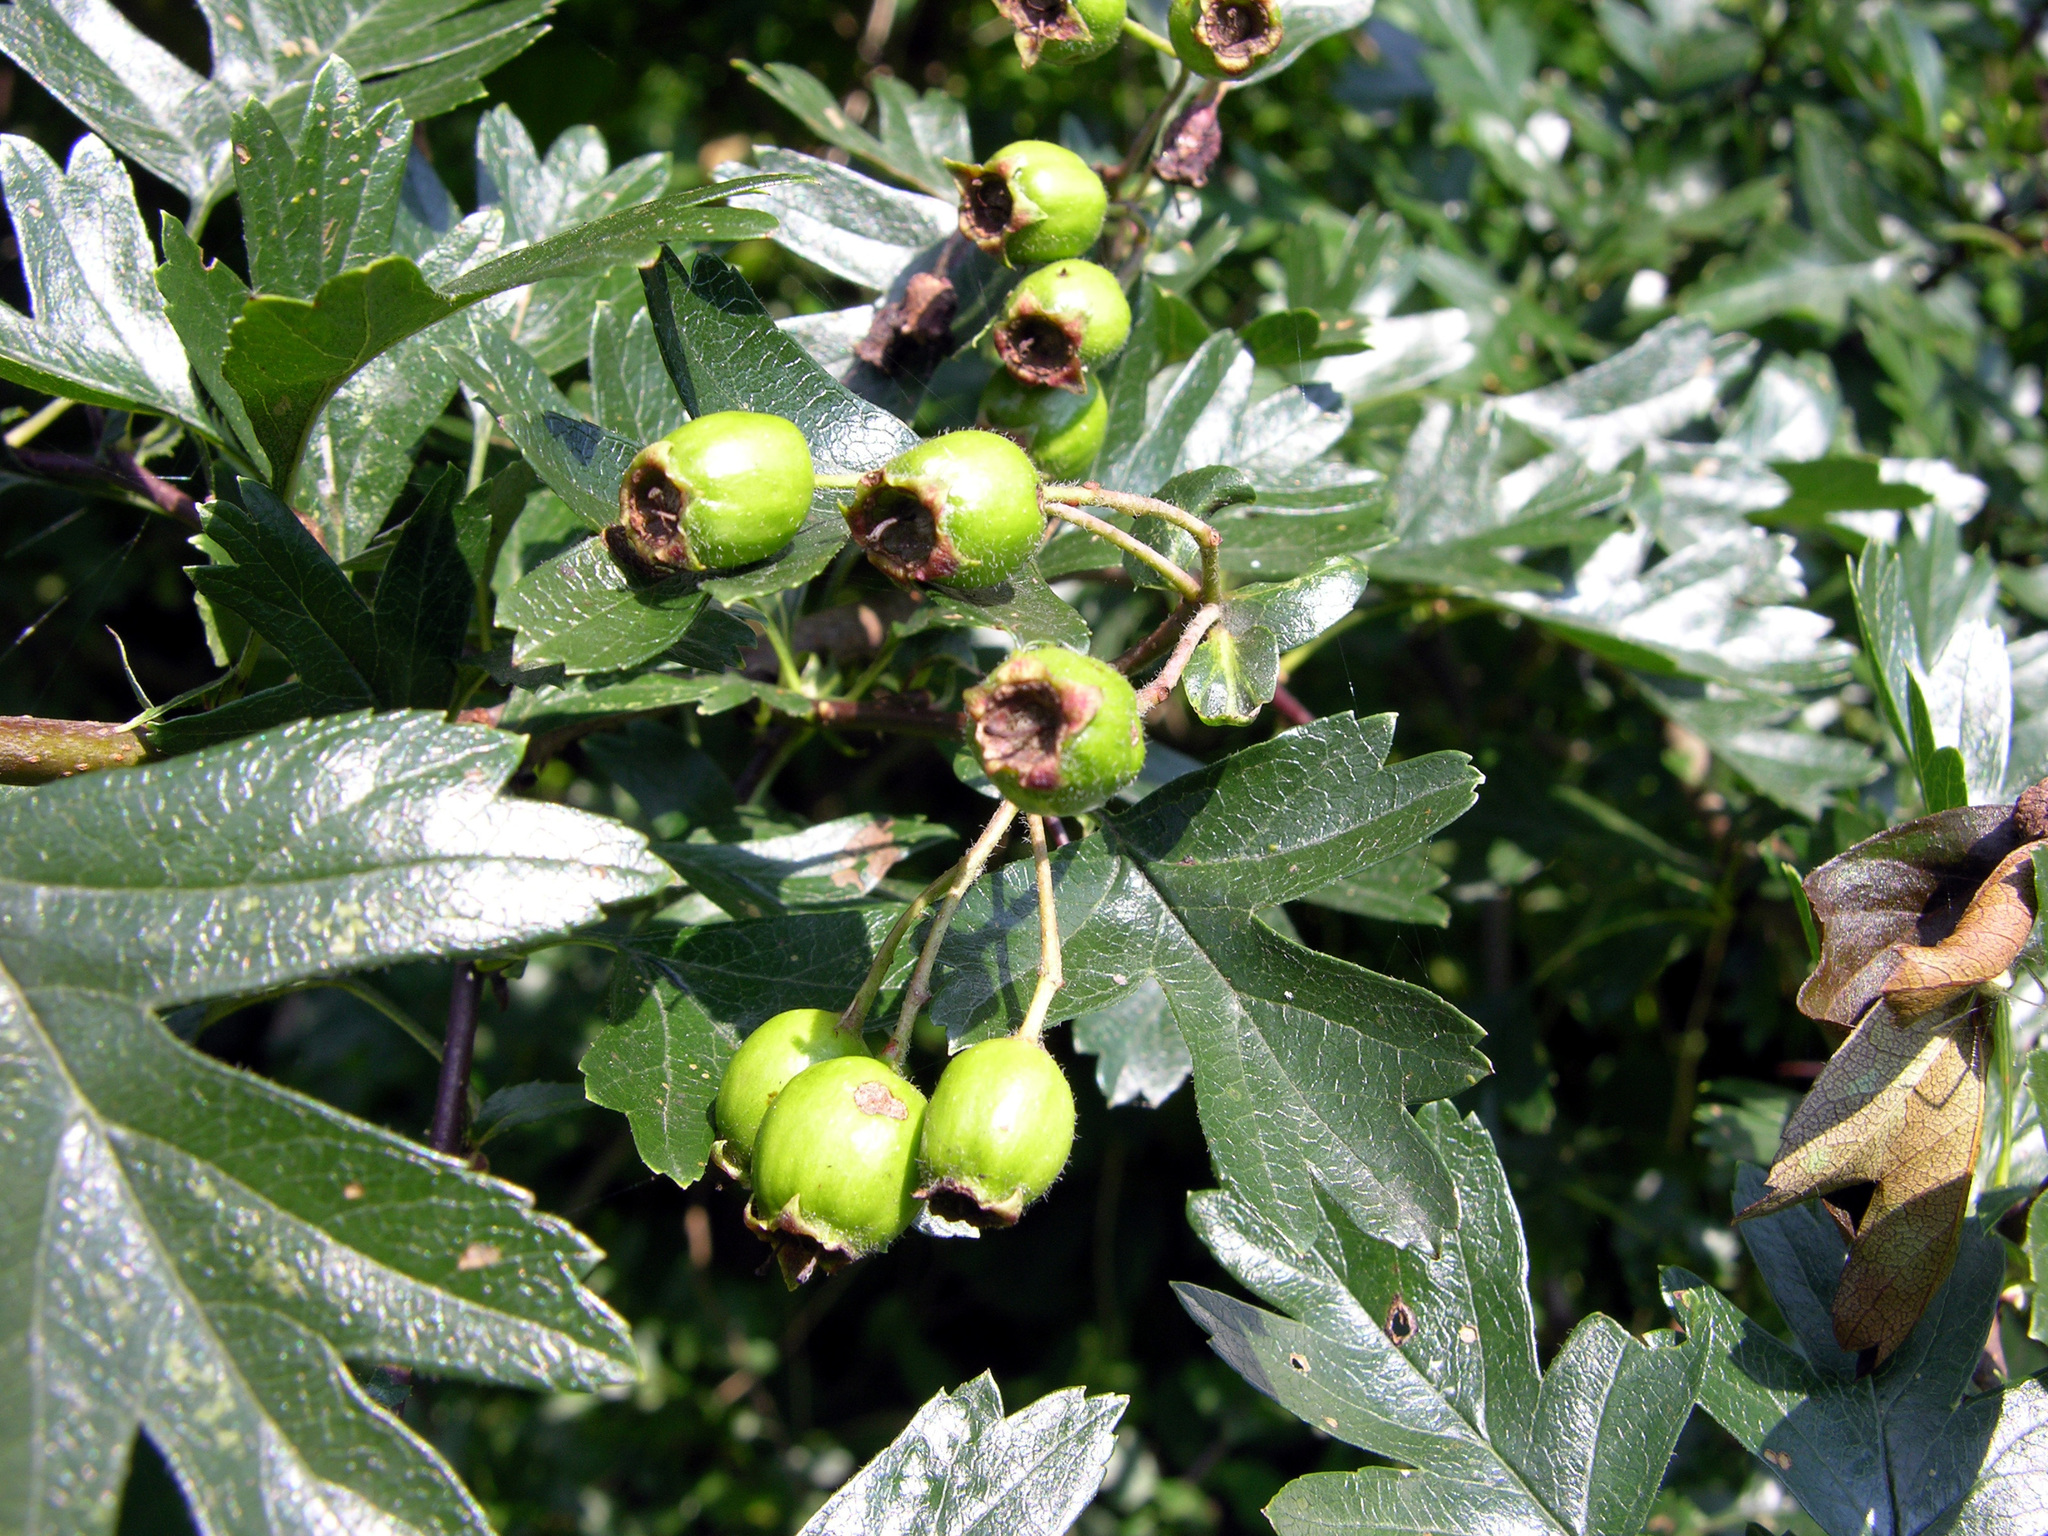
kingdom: Plantae
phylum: Tracheophyta
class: Magnoliopsida
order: Rosales
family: Rosaceae
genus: Crataegus
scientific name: Crataegus monogyna
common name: Hawthorn
